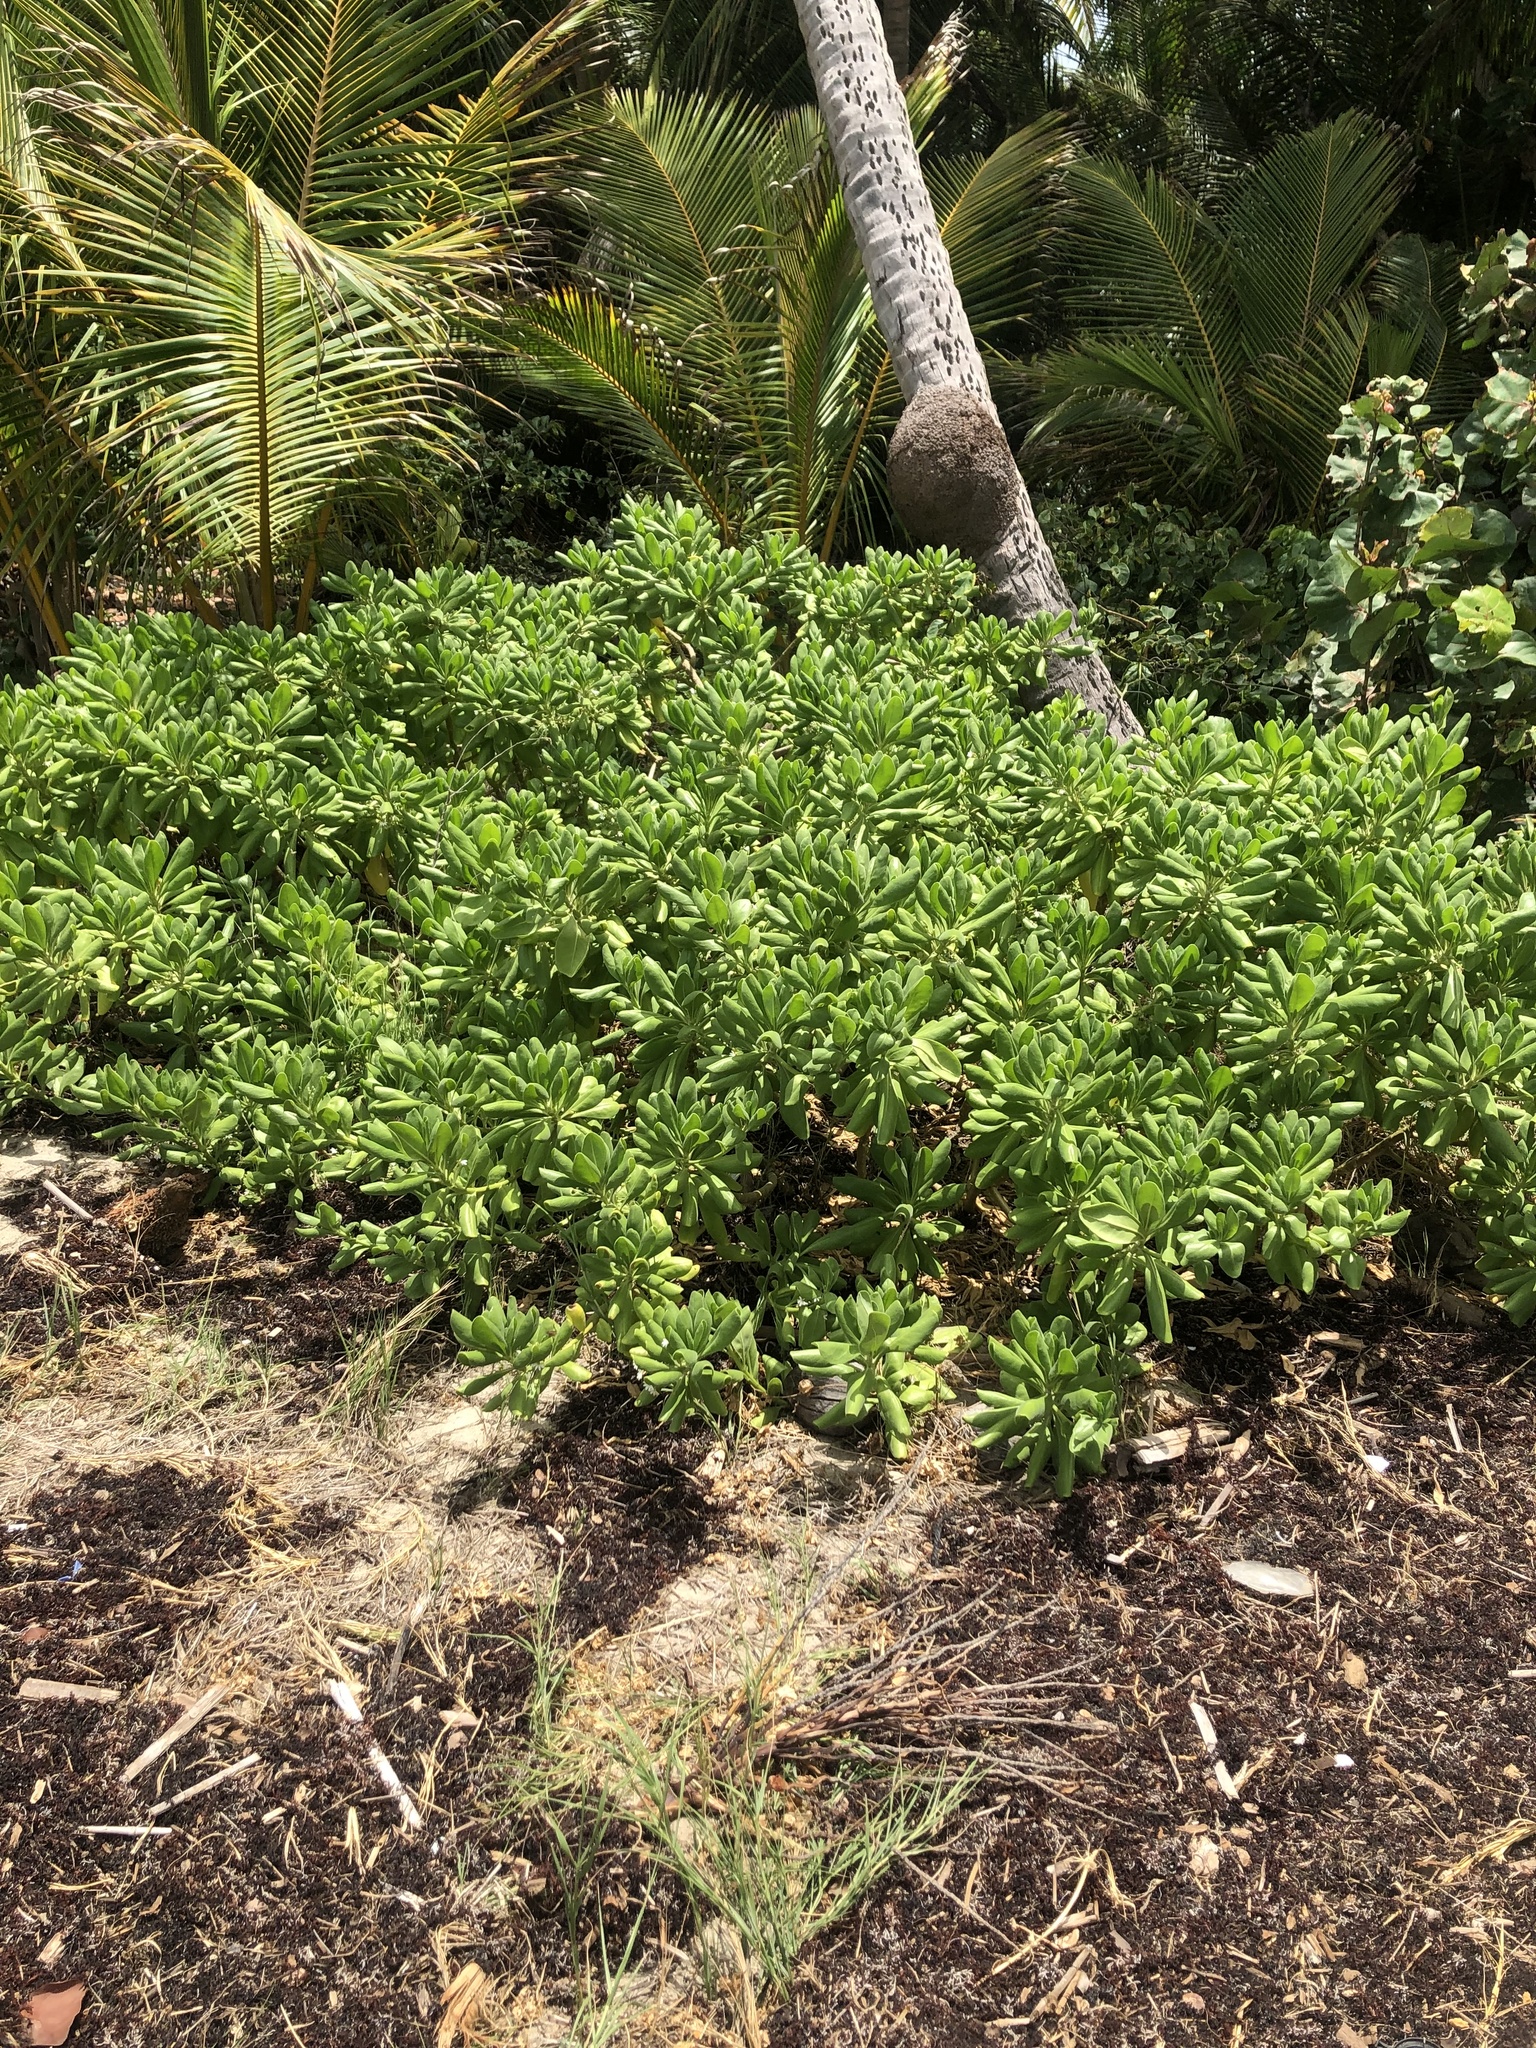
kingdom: Plantae
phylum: Tracheophyta
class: Magnoliopsida
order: Asterales
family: Goodeniaceae
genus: Scaevola
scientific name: Scaevola taccada
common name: Sea lettucetree
